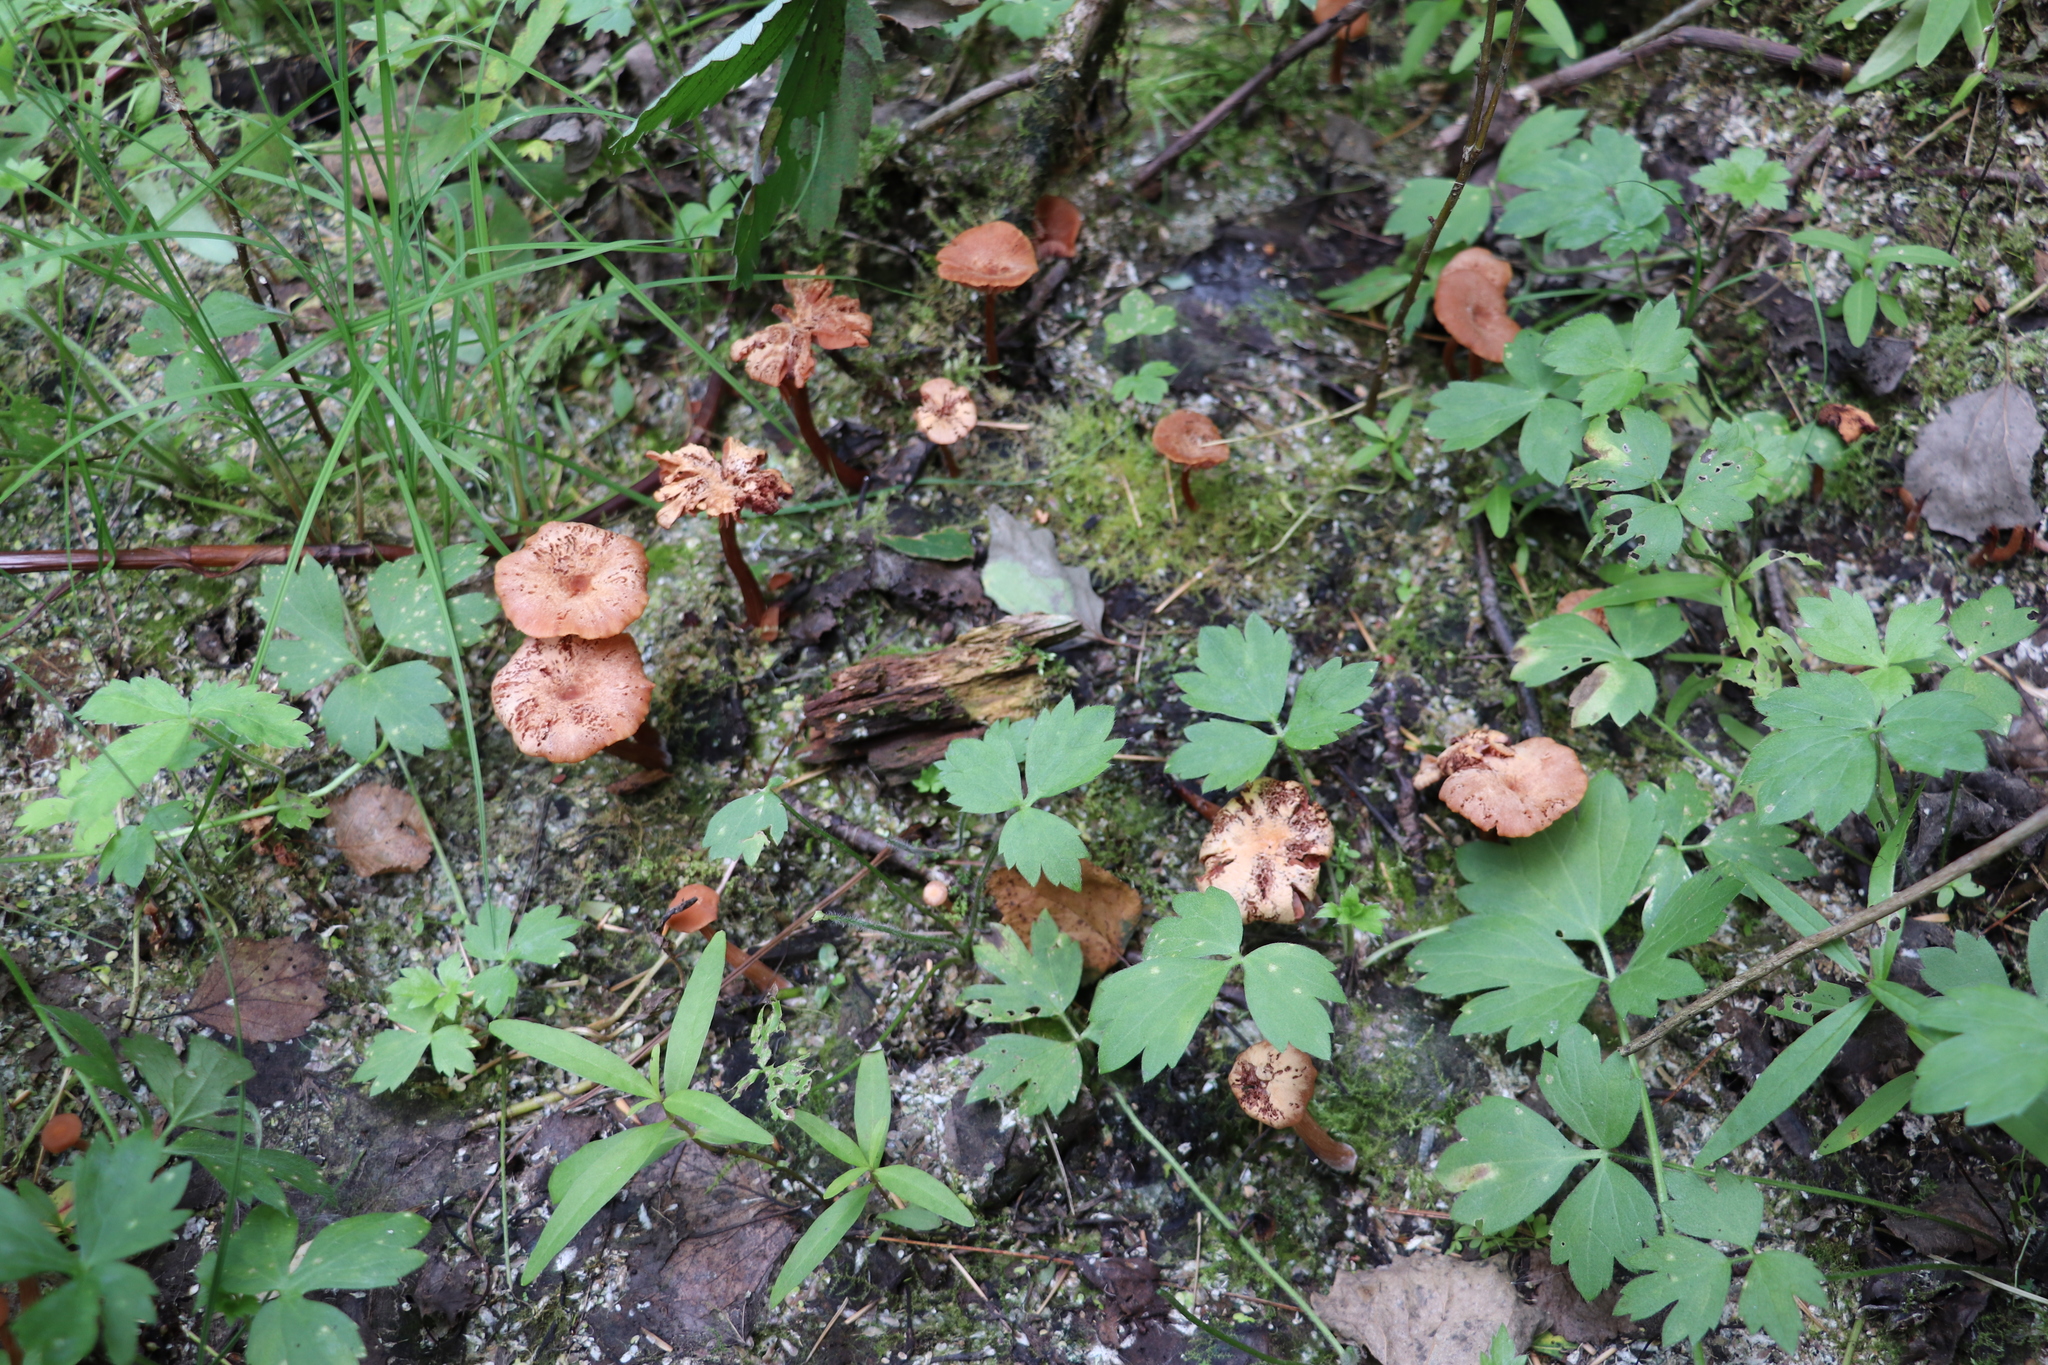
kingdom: Fungi
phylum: Basidiomycota
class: Agaricomycetes
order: Agaricales
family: Hydnangiaceae
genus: Laccaria
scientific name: Laccaria laccata
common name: Deceiver
